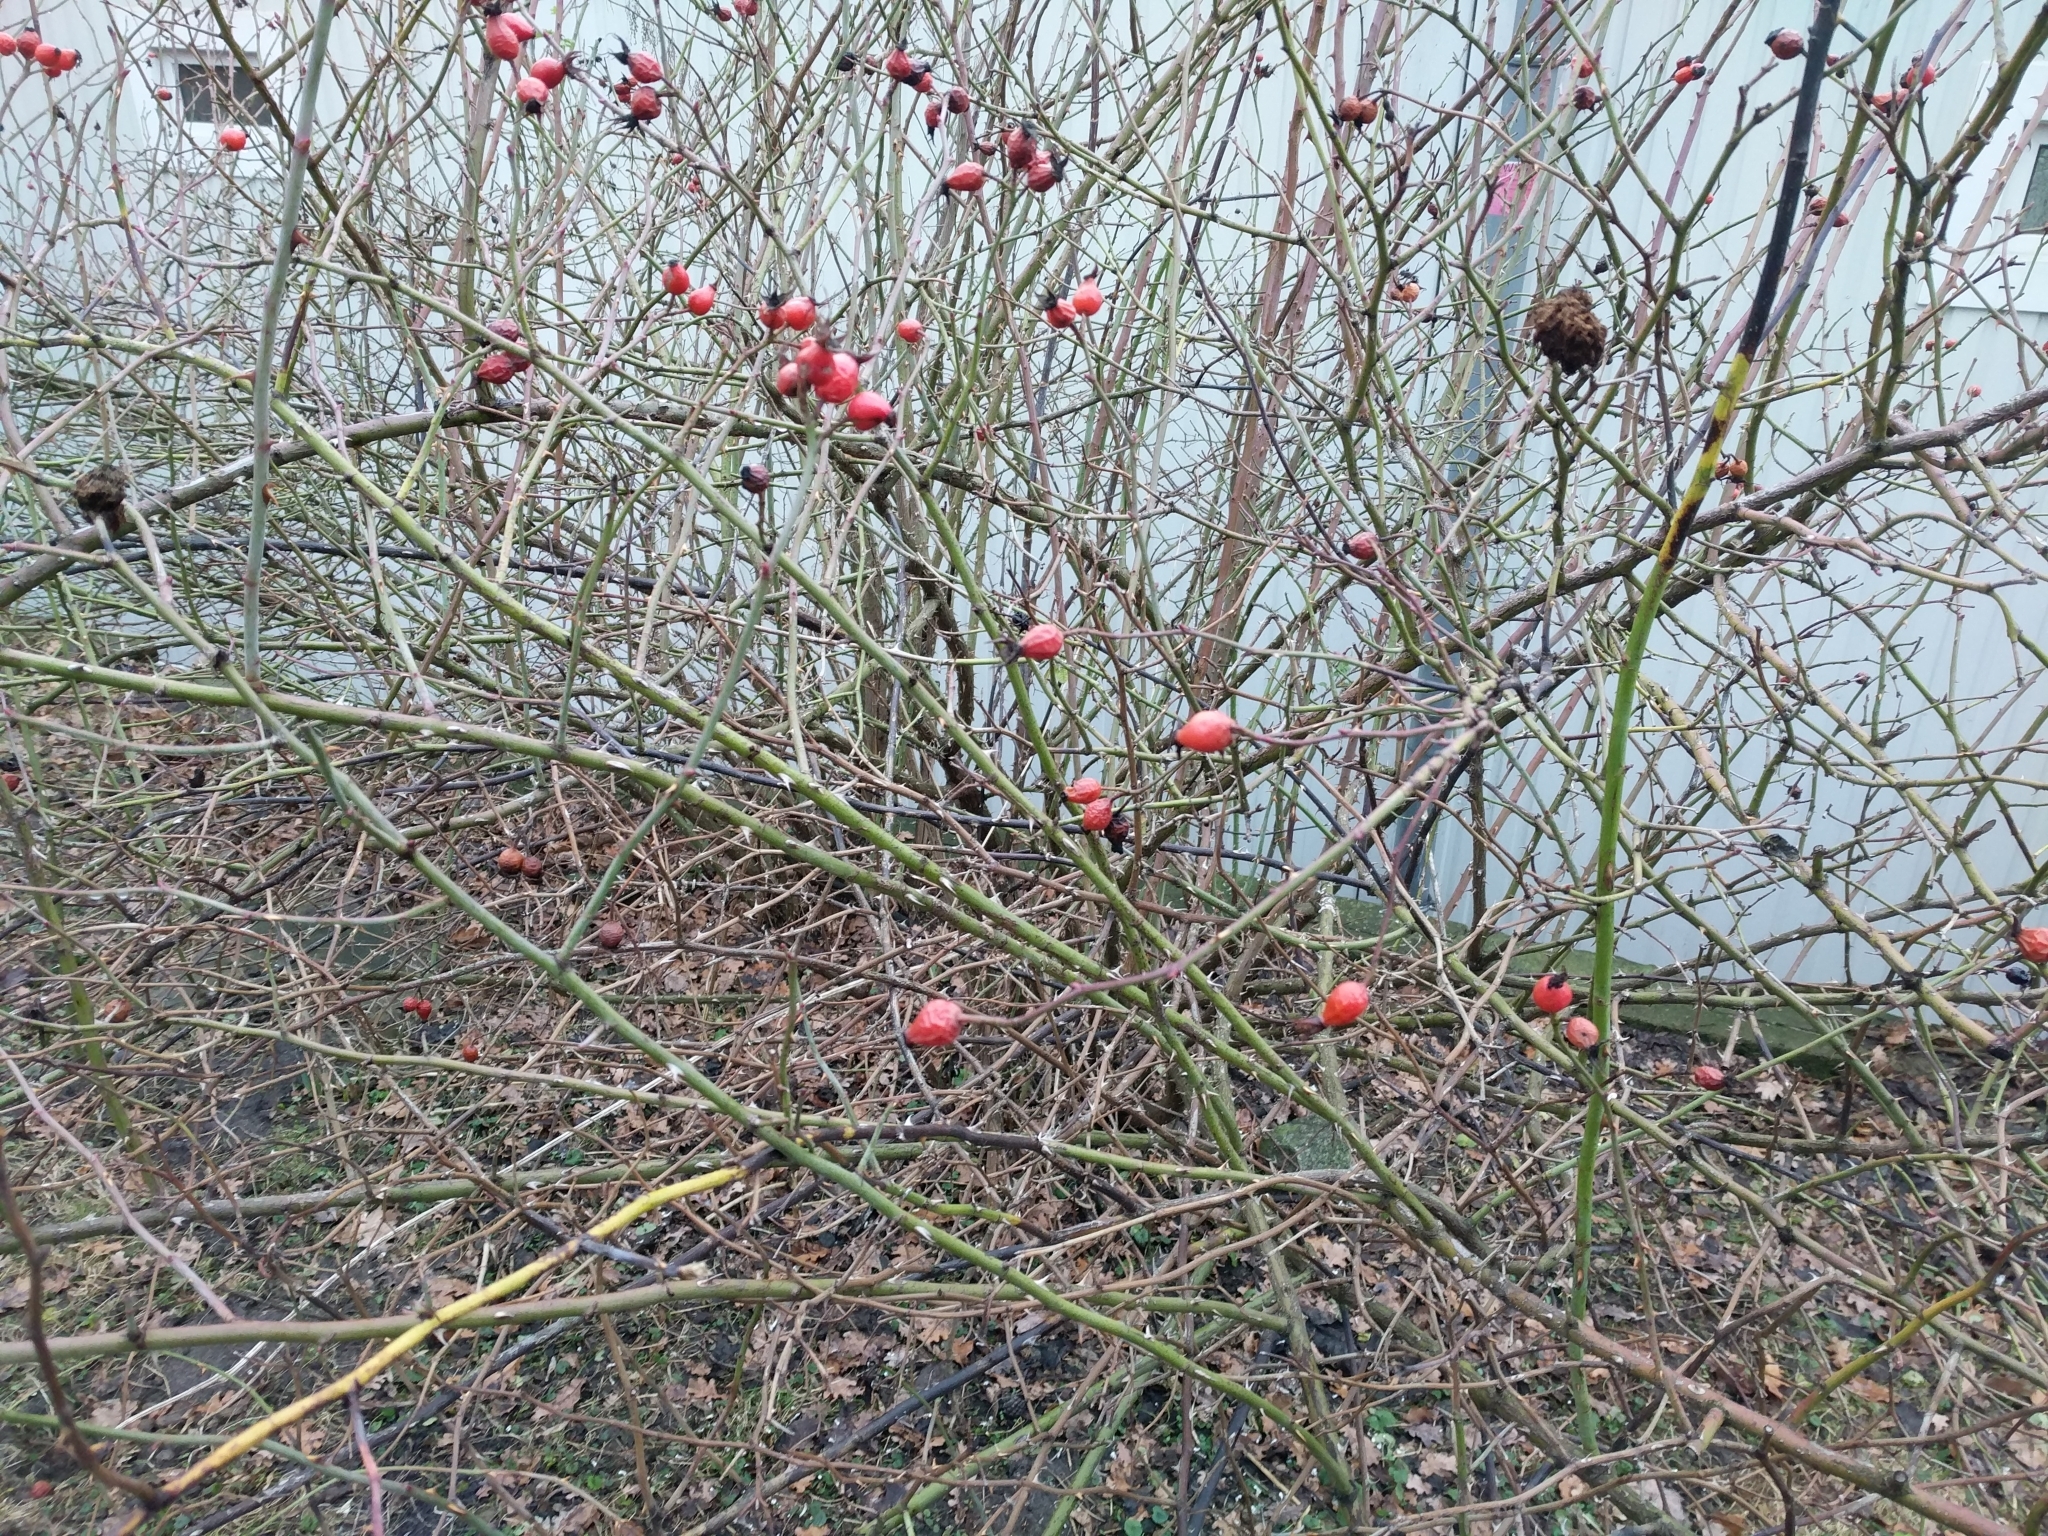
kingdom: Plantae
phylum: Tracheophyta
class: Magnoliopsida
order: Rosales
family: Rosaceae
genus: Rosa
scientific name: Rosa canina
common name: Dog rose
